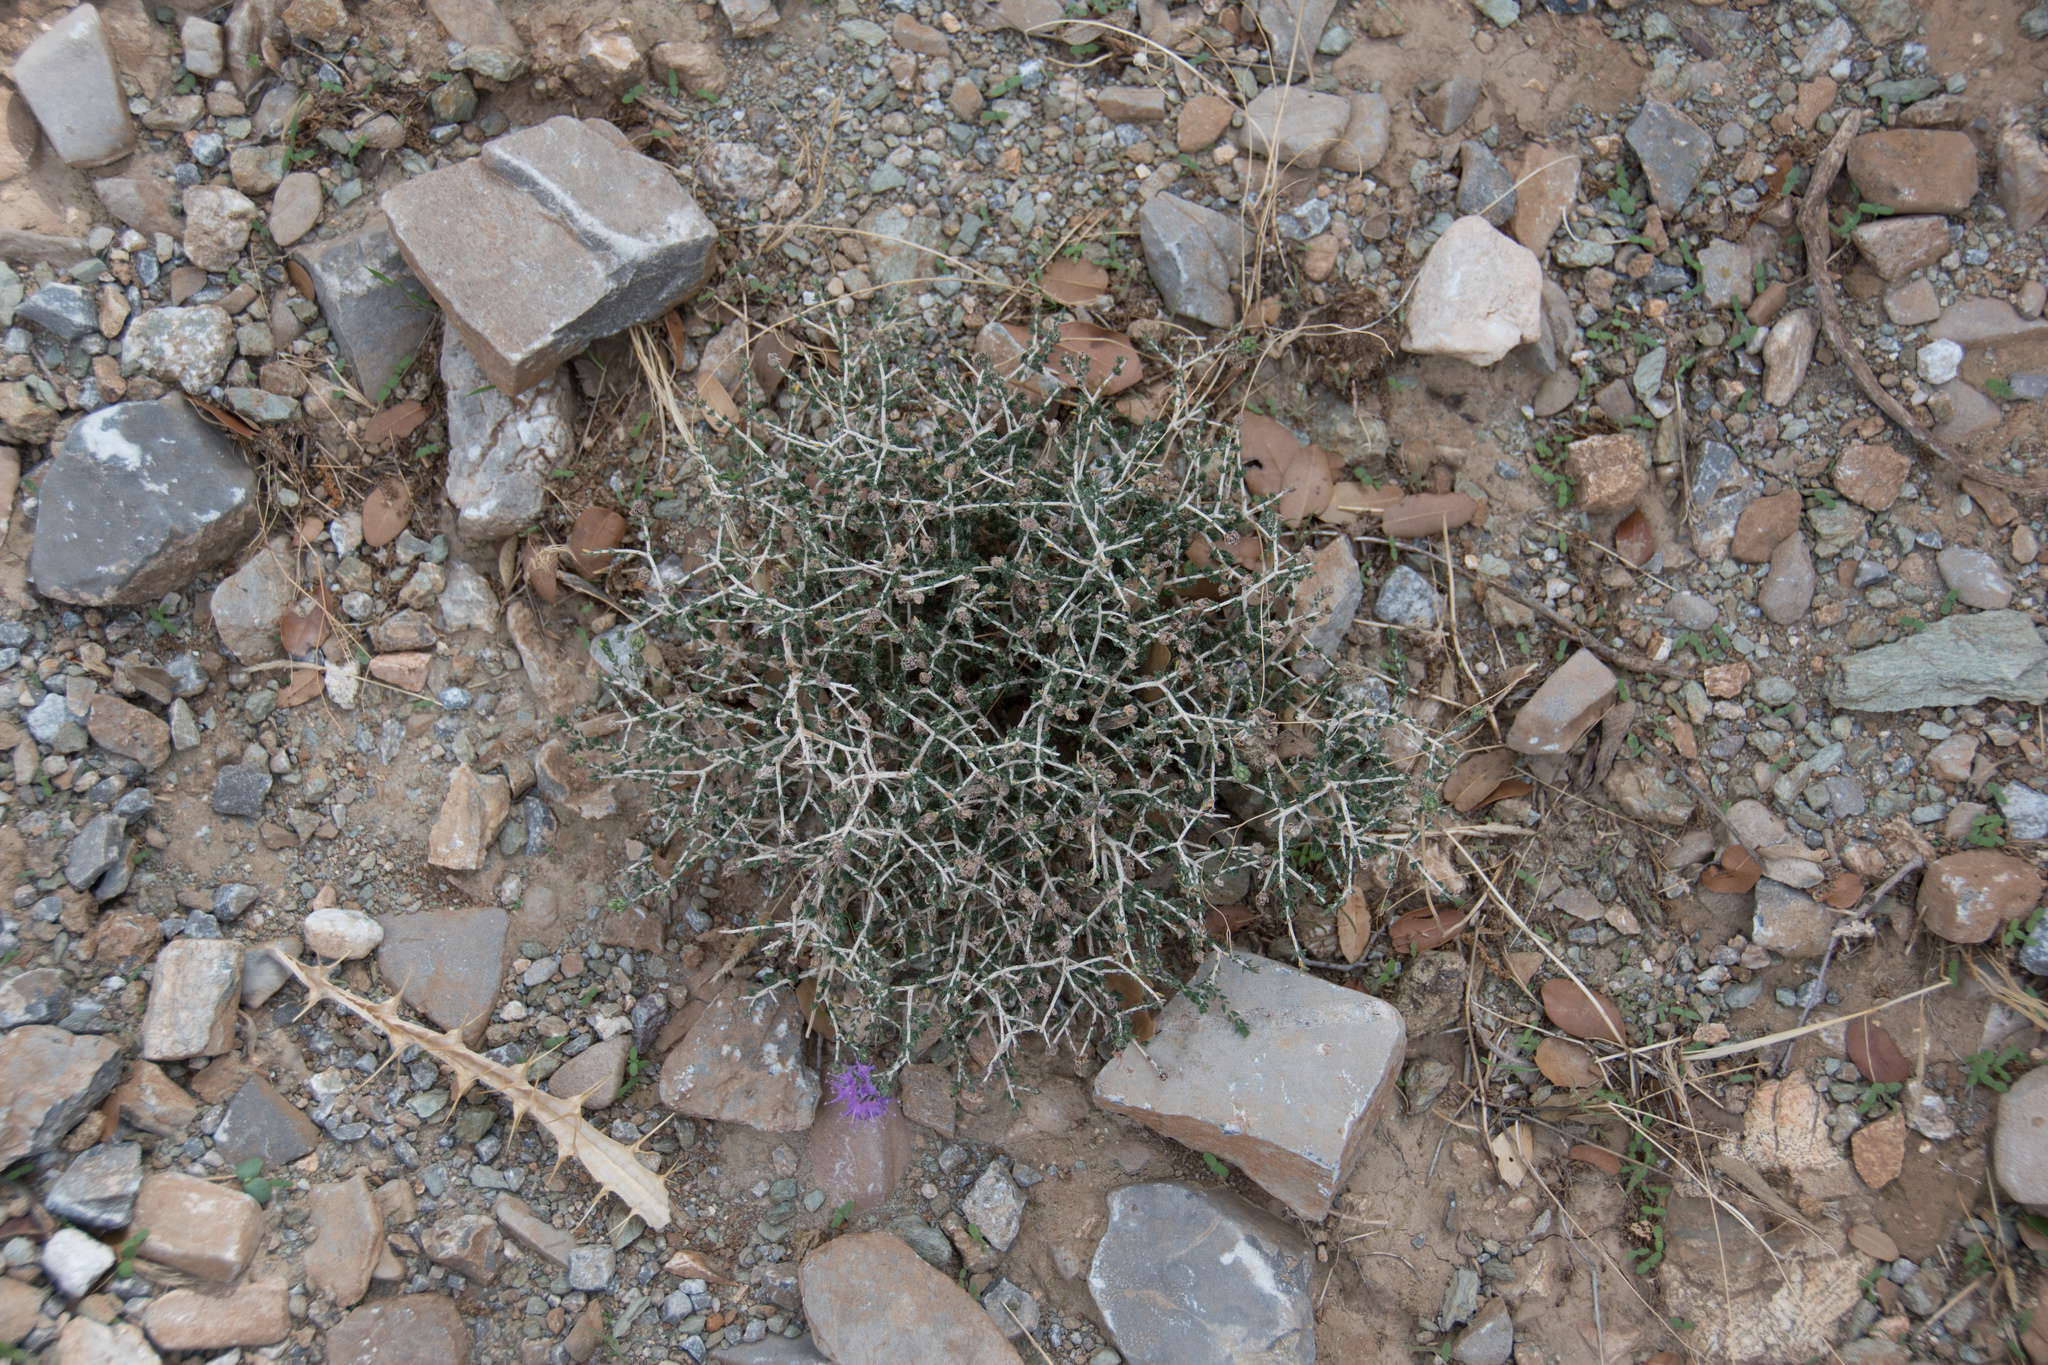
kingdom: Plantae
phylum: Tracheophyta
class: Magnoliopsida
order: Lamiales
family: Lamiaceae
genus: Thymbra
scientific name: Thymbra capitata
